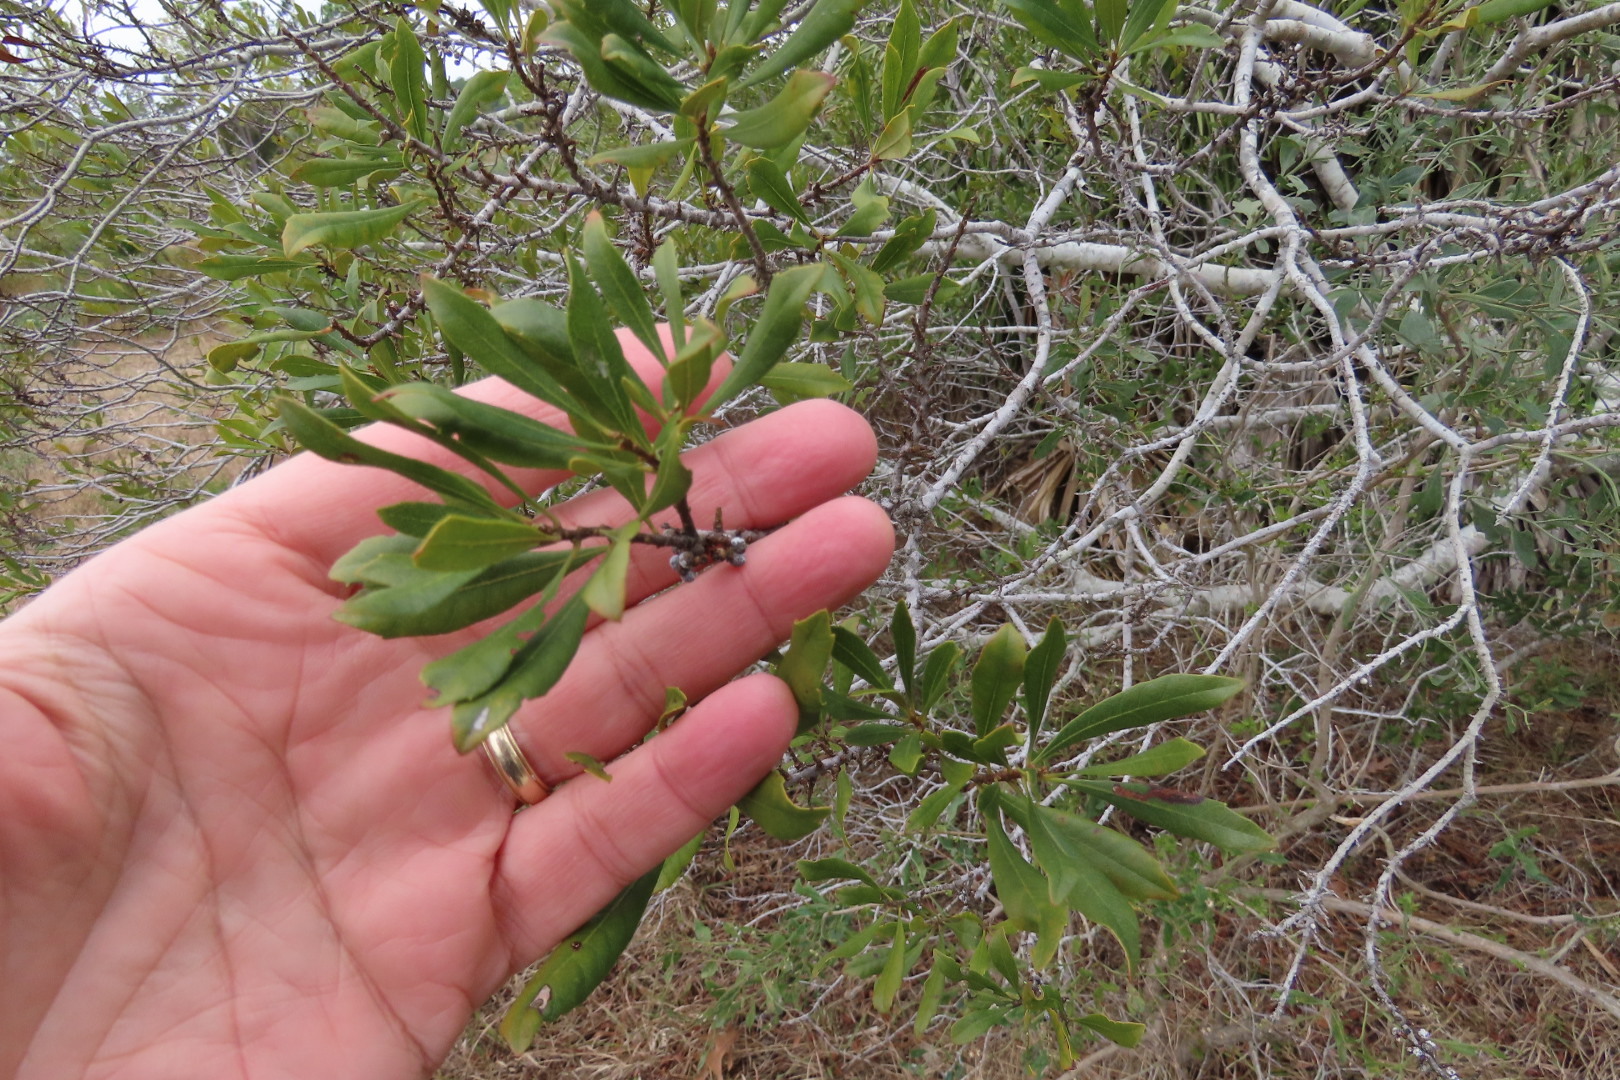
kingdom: Plantae
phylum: Tracheophyta
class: Magnoliopsida
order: Fagales
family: Myricaceae
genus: Morella
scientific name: Morella cerifera
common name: Wax myrtle
